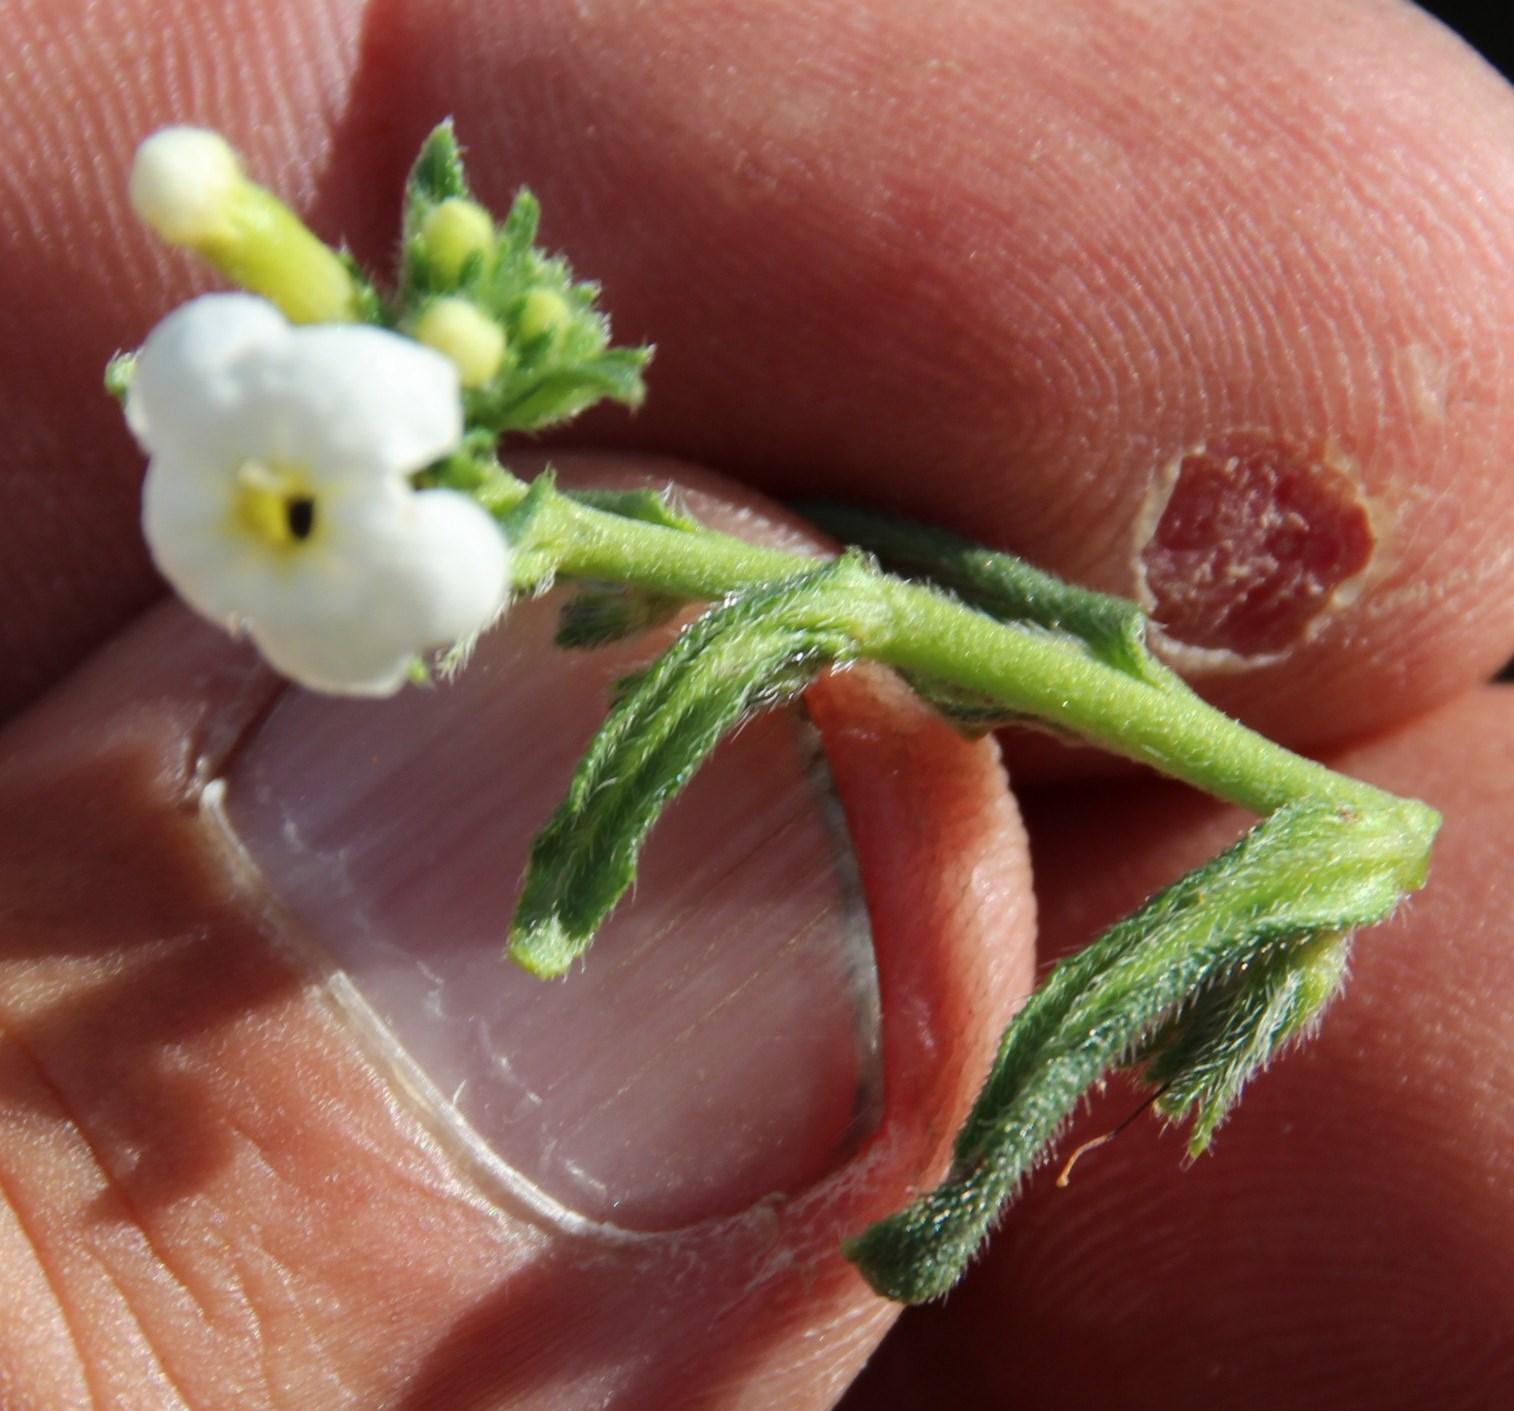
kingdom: Plantae
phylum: Tracheophyta
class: Magnoliopsida
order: Boraginales
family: Boraginaceae
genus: Lithospermum
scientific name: Lithospermum diversifolium
